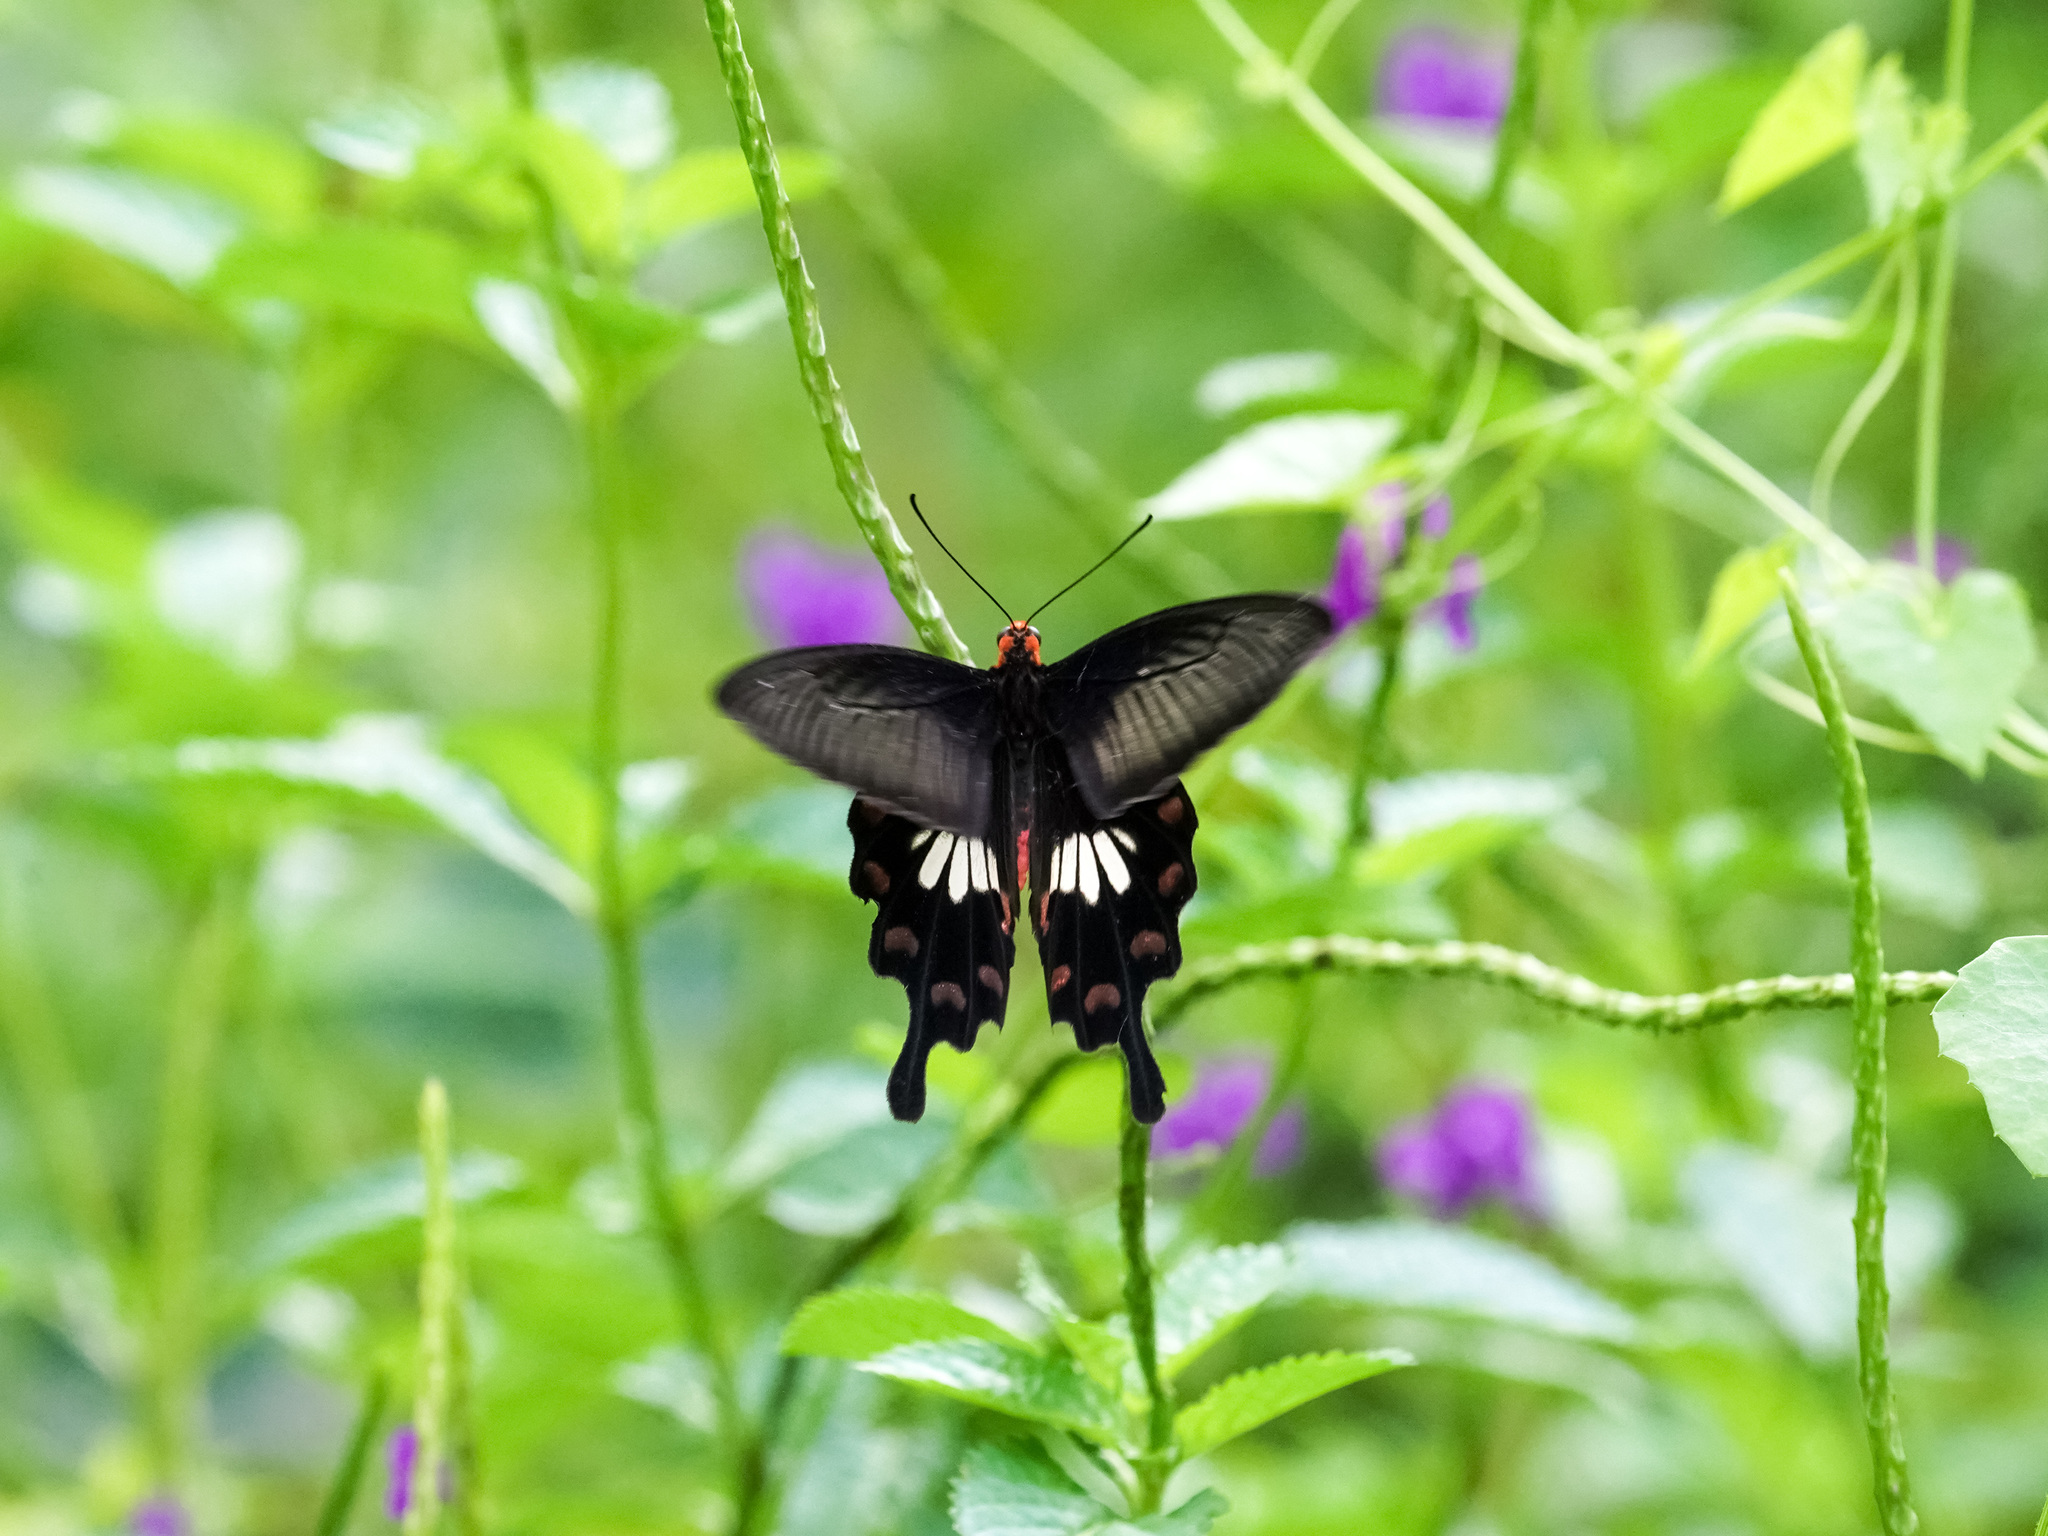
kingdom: Animalia
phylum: Arthropoda
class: Insecta
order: Lepidoptera
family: Papilionidae
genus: Pachliopta
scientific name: Pachliopta aristolochiae
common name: Common rose
